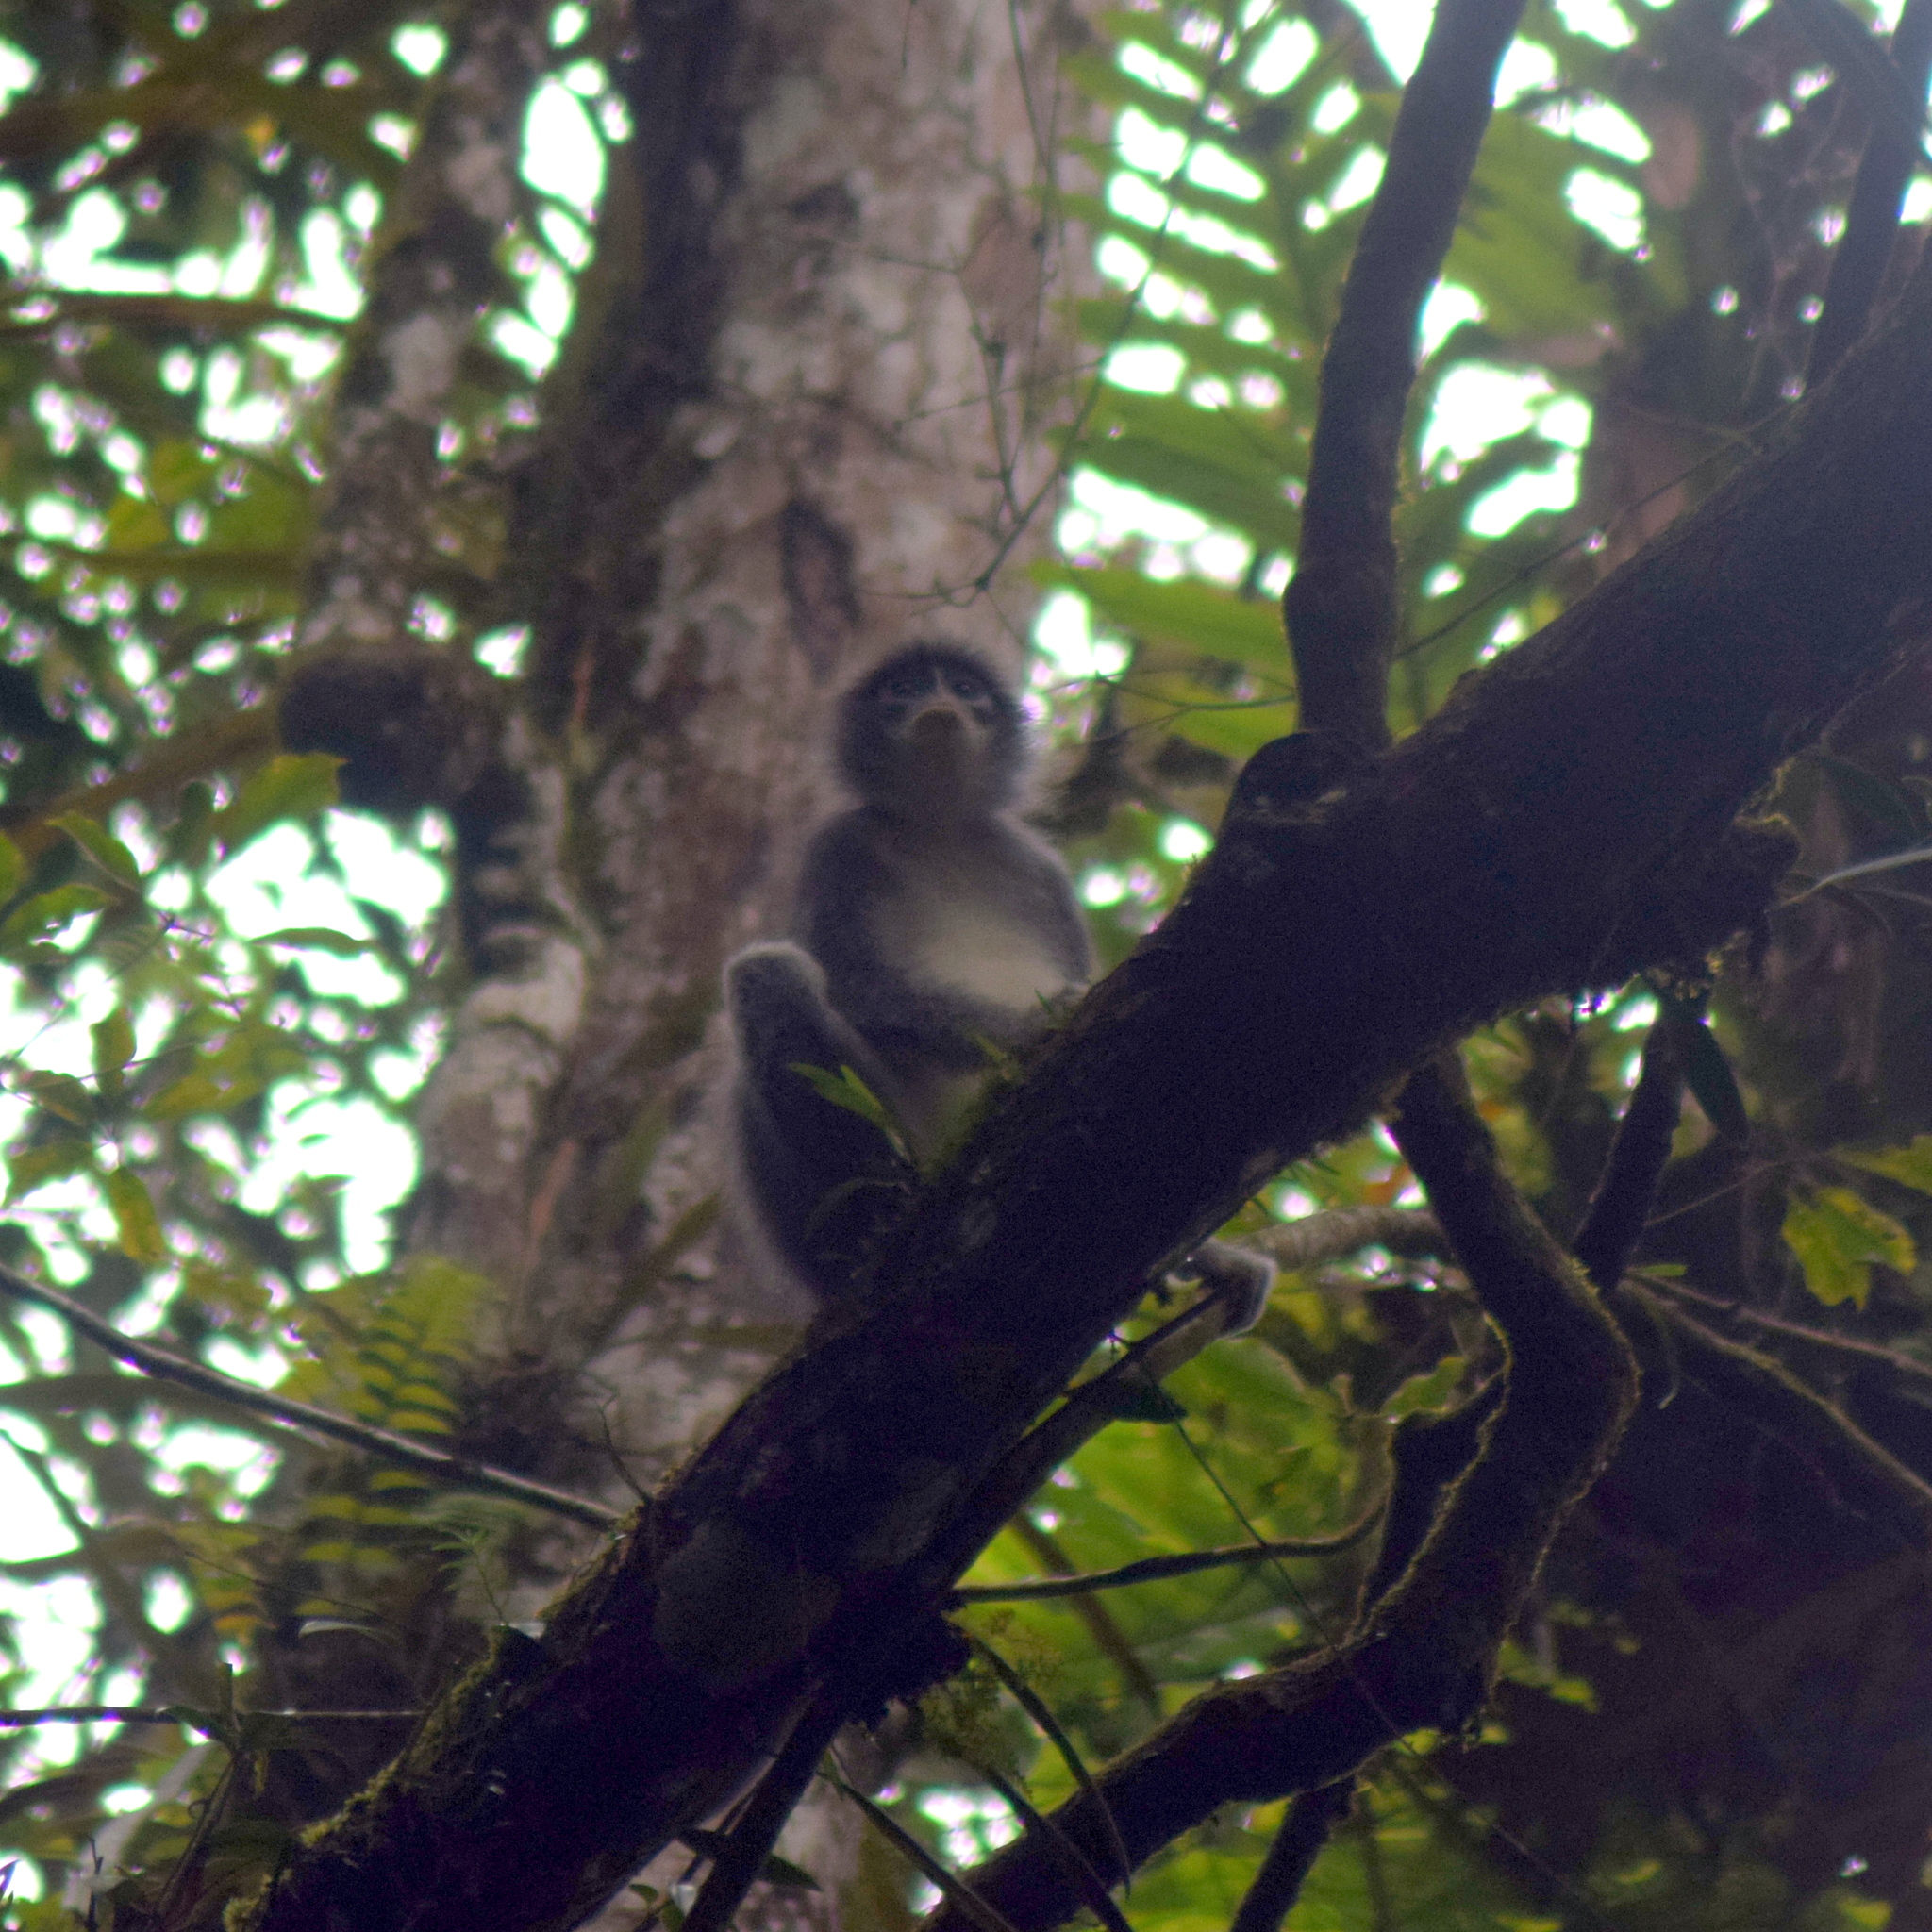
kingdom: Animalia
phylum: Chordata
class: Mammalia
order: Primates
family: Cercopithecidae
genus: Presbytis
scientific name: Presbytis comata
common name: Javan surili
